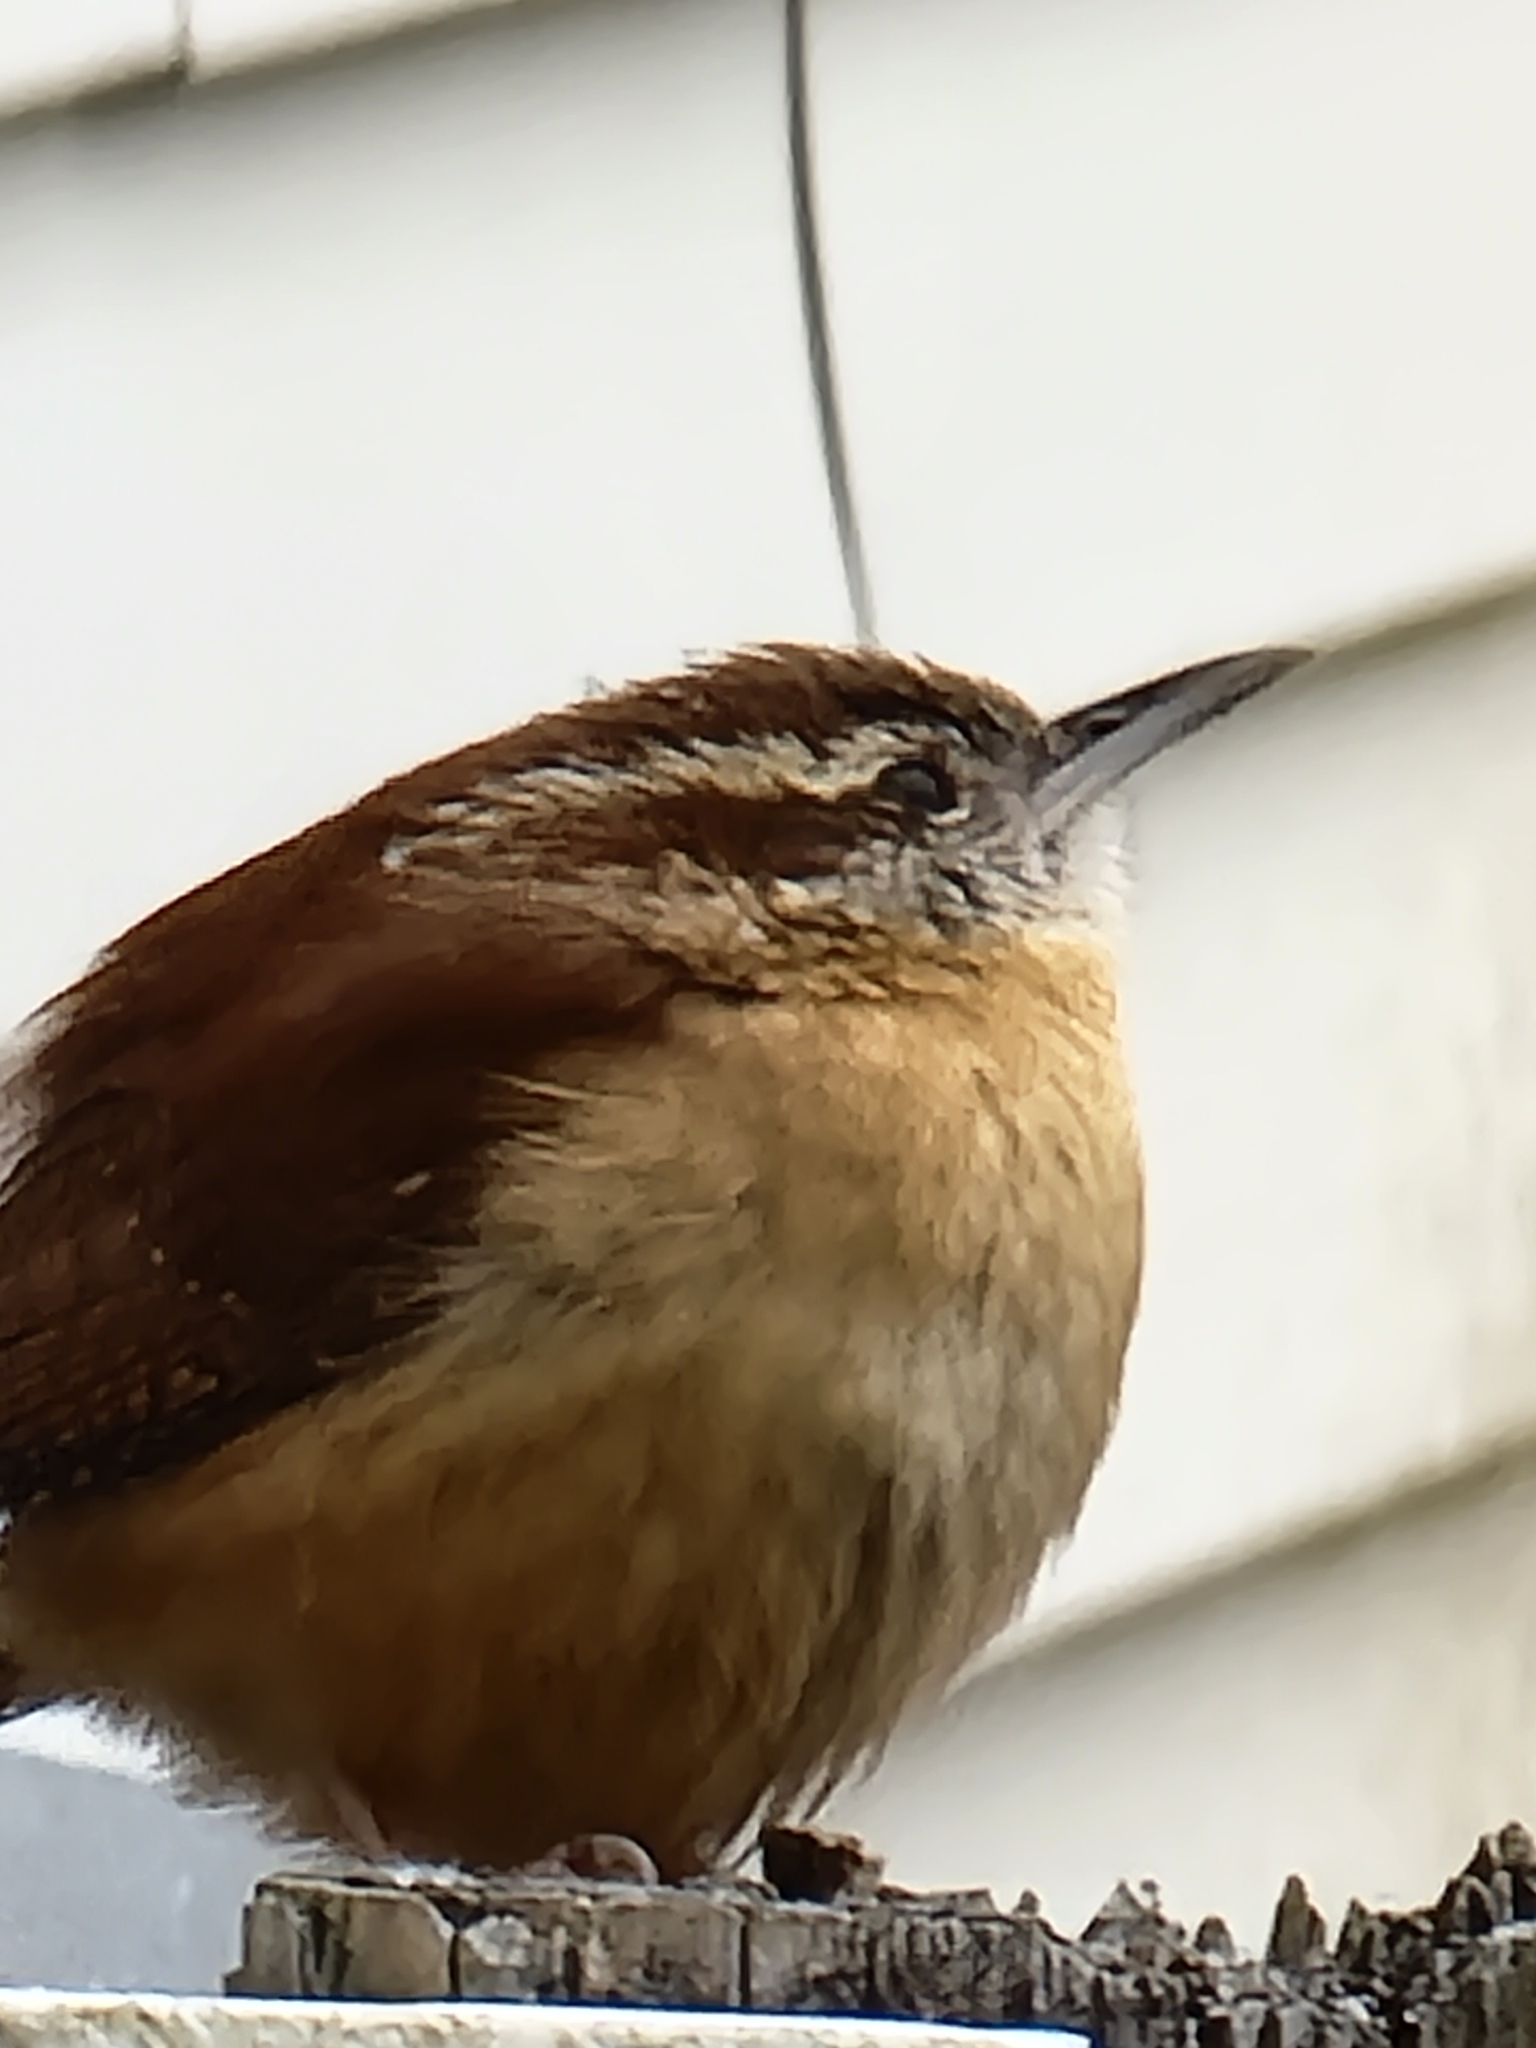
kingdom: Animalia
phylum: Chordata
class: Aves
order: Passeriformes
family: Troglodytidae
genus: Thryothorus
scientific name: Thryothorus ludovicianus
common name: Carolina wren
